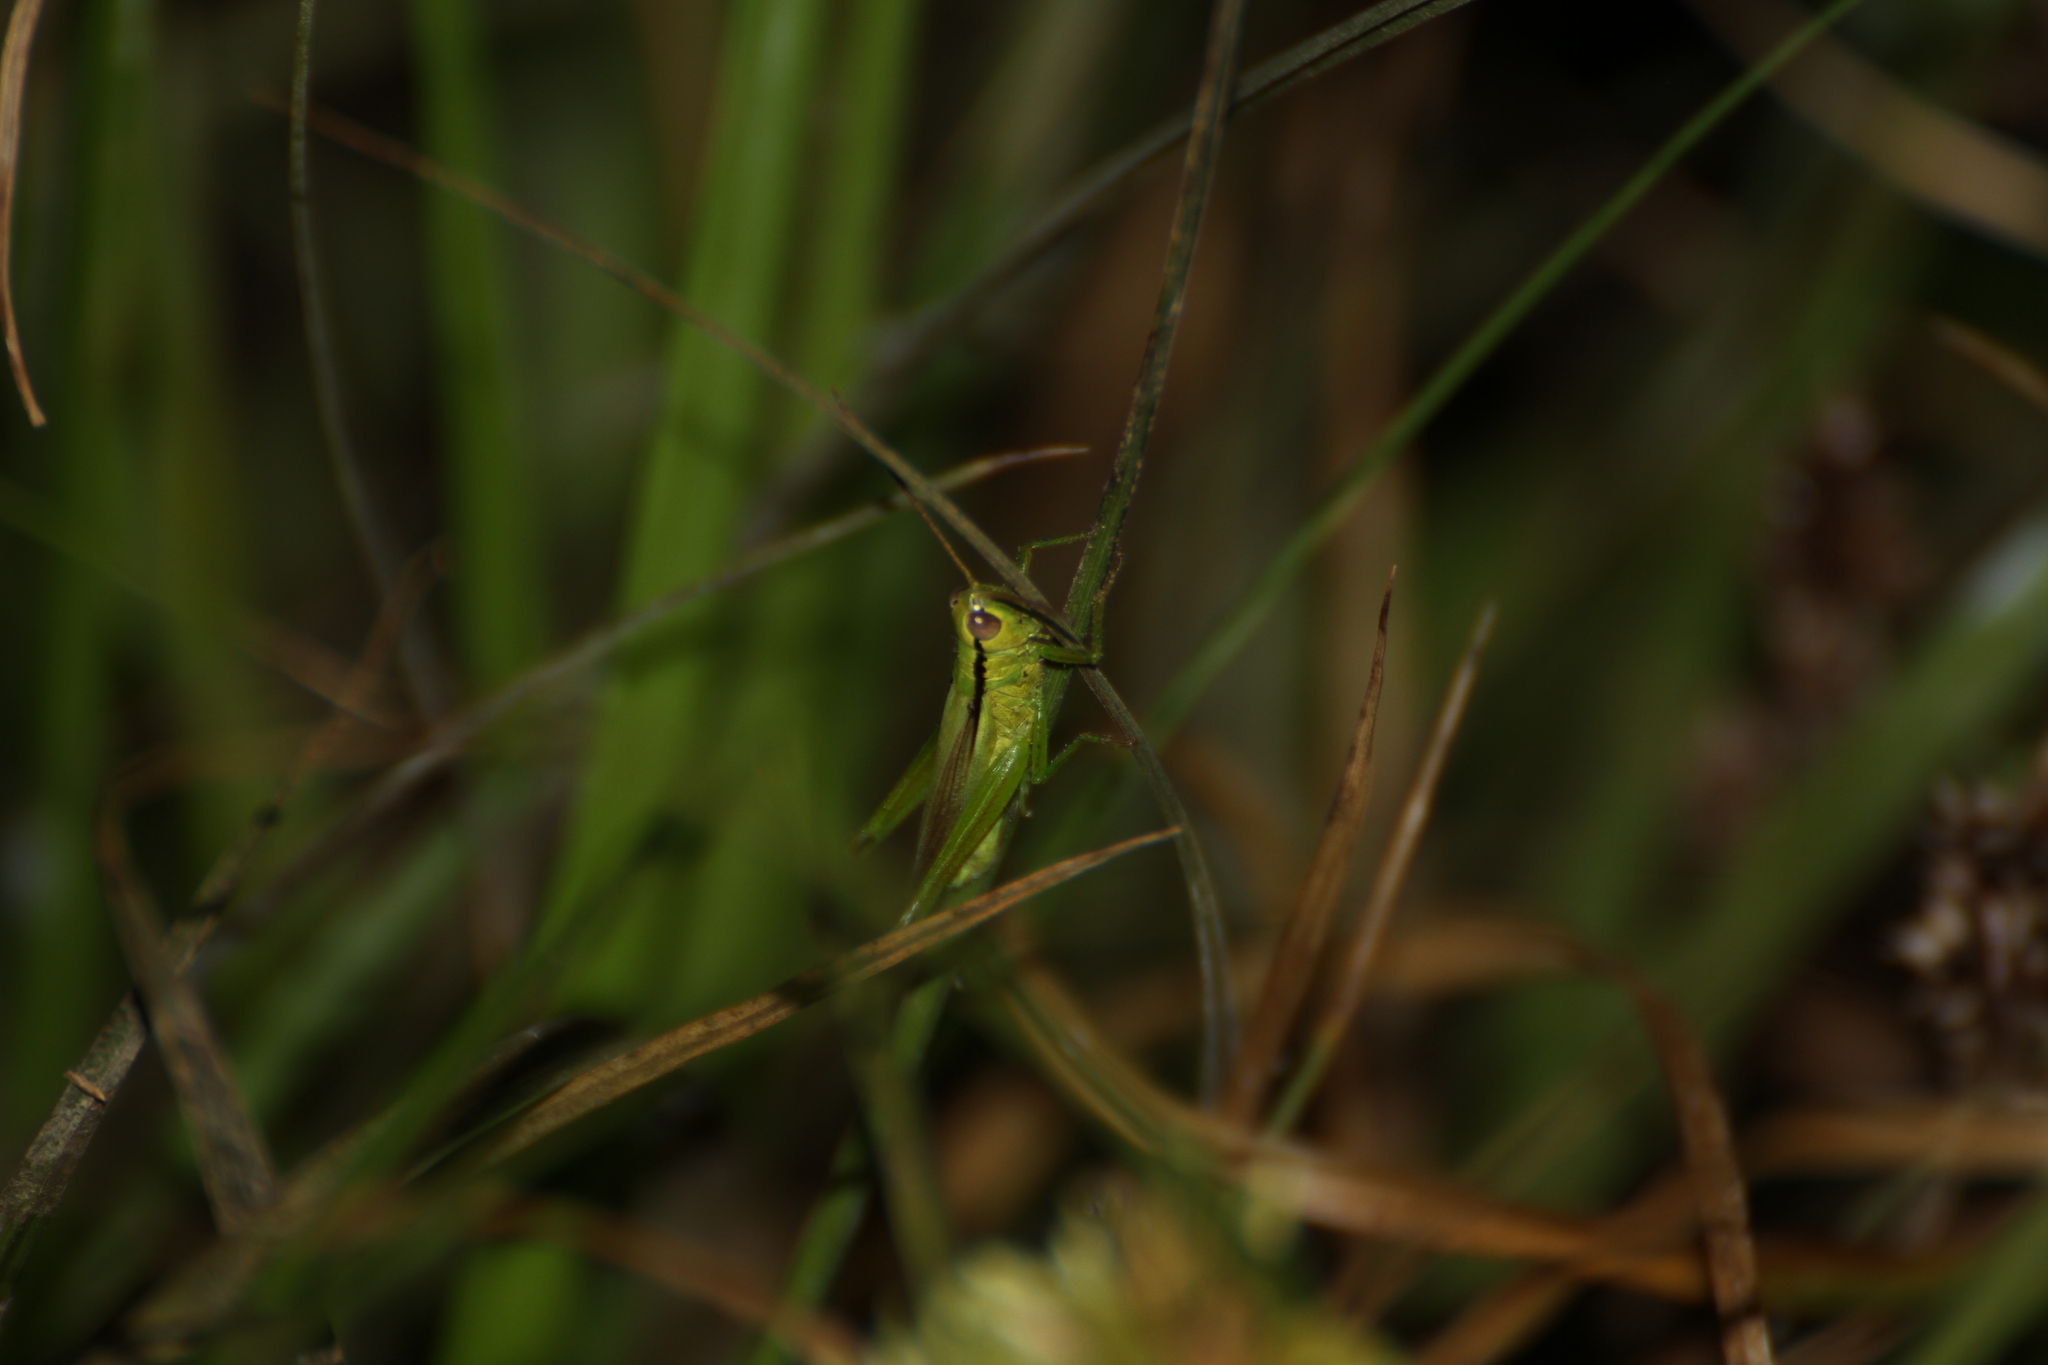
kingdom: Animalia
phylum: Arthropoda
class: Insecta
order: Orthoptera
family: Acrididae
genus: Mecostethus
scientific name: Mecostethus parapleurus
